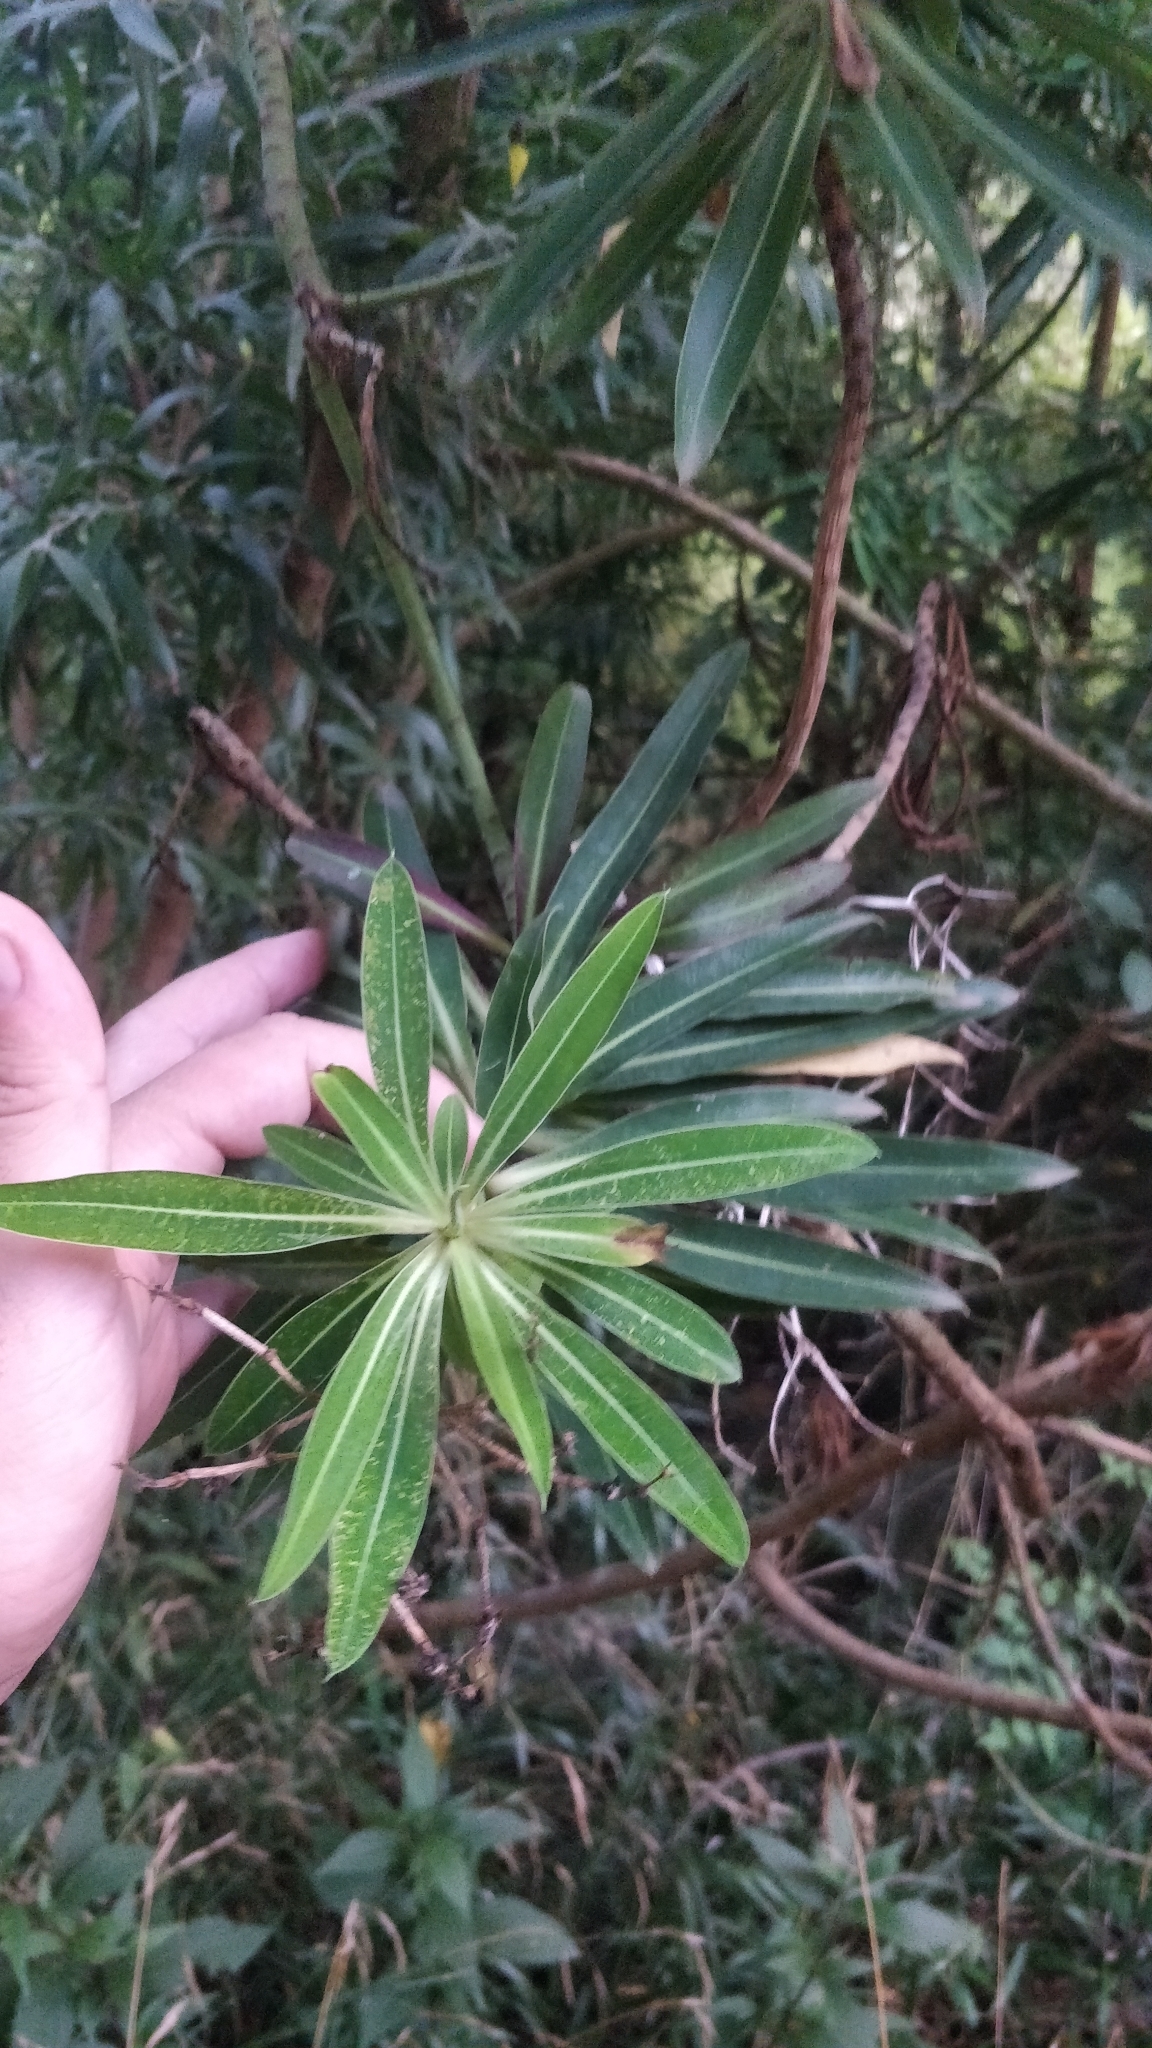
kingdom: Plantae
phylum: Tracheophyta
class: Magnoliopsida
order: Malpighiales
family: Euphorbiaceae
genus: Euphorbia
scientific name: Euphorbia mellifera
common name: Canary spurge
